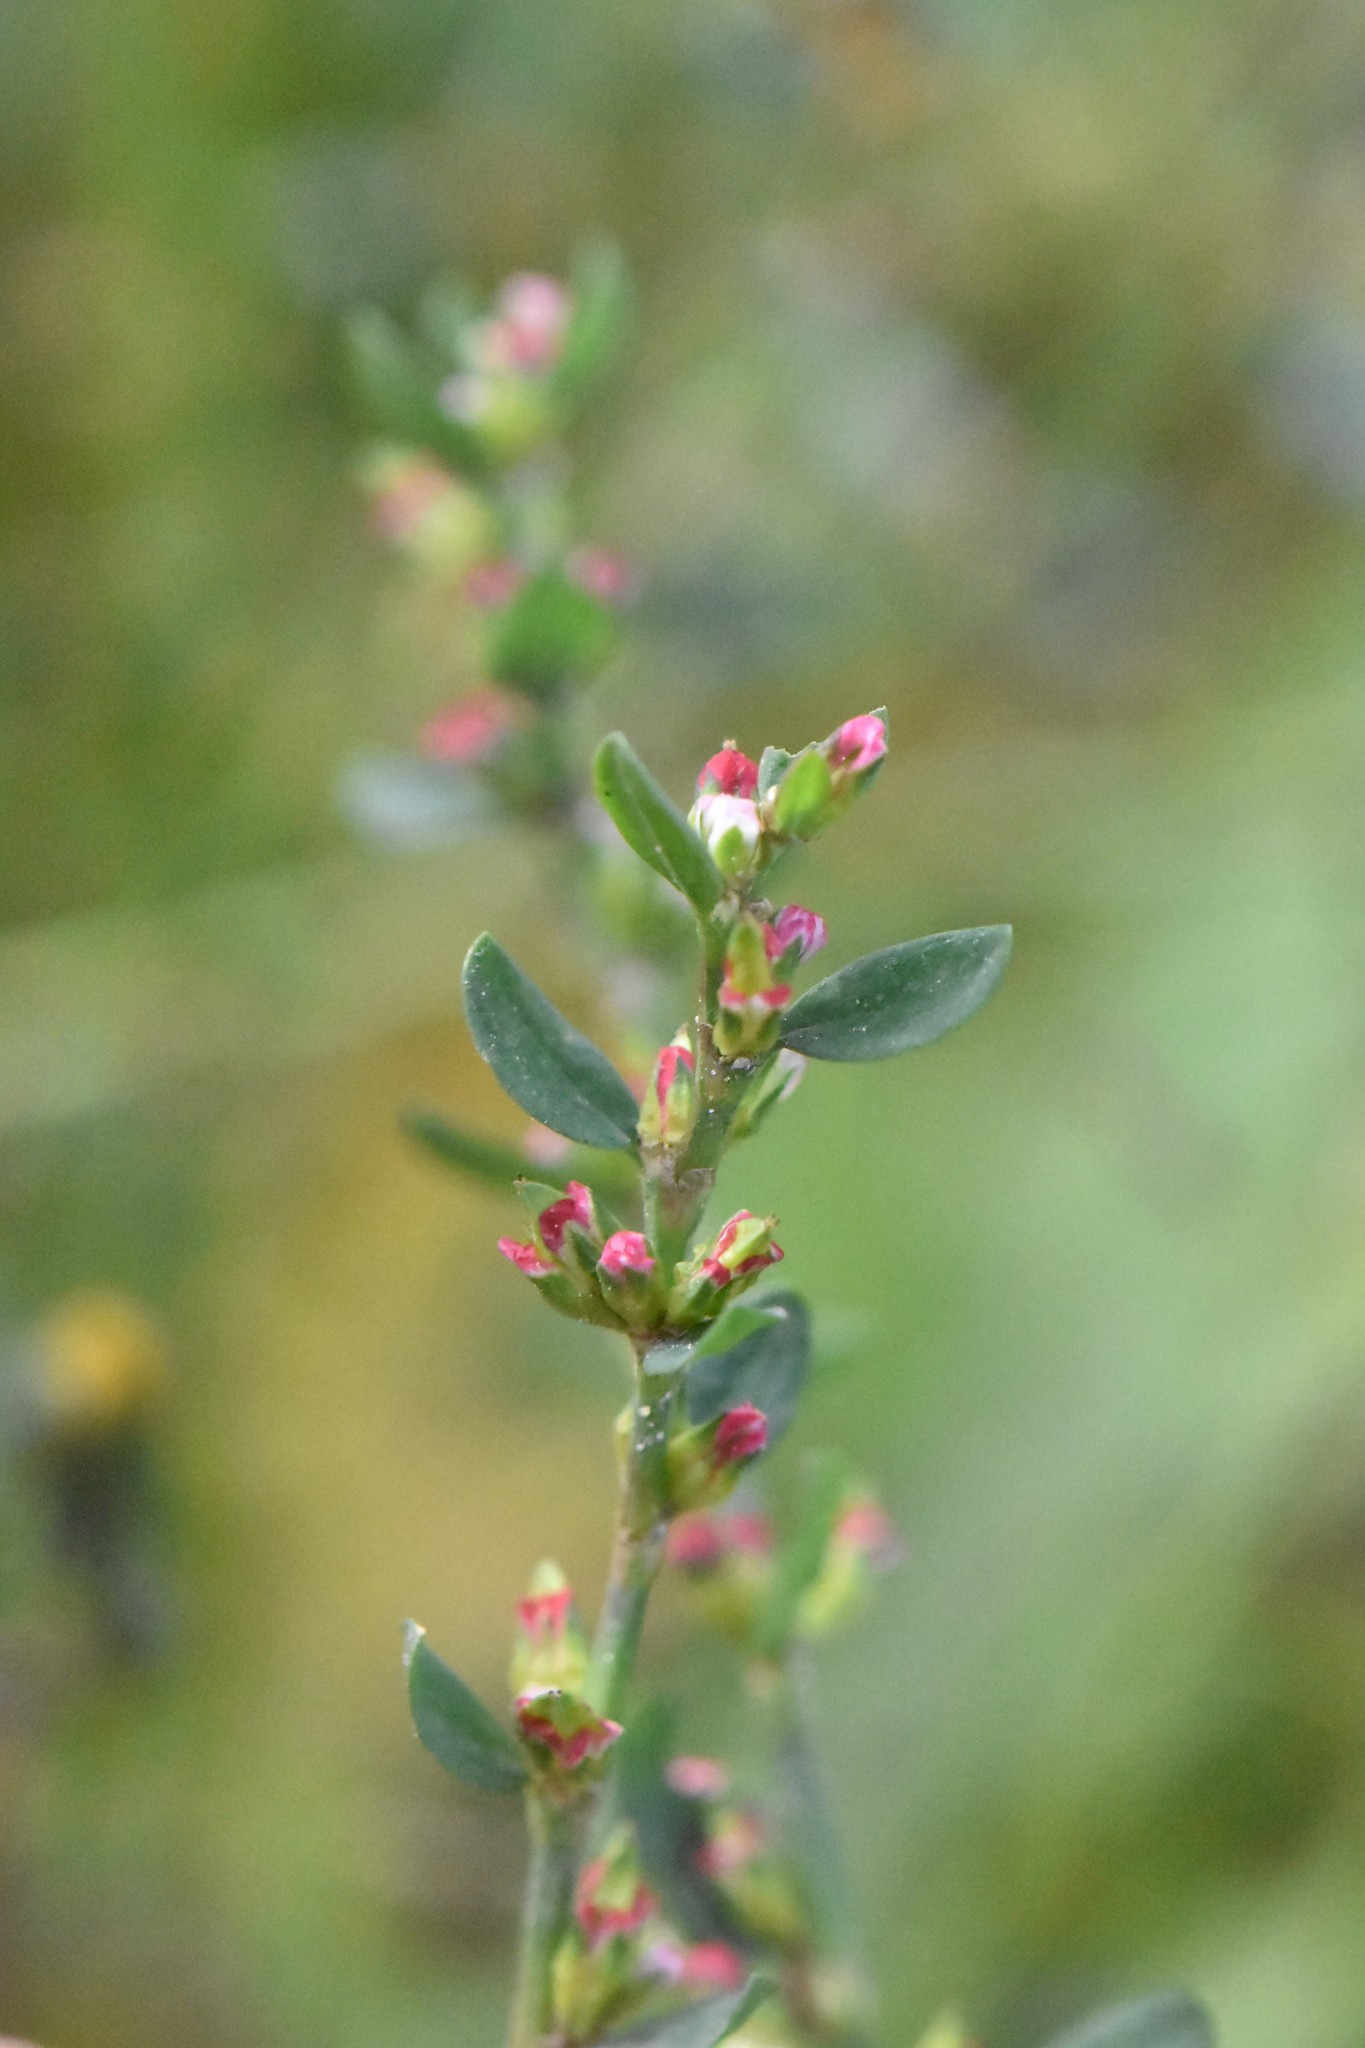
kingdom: Plantae
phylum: Tracheophyta
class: Magnoliopsida
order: Caryophyllales
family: Polygonaceae
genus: Polygonum
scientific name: Polygonum
